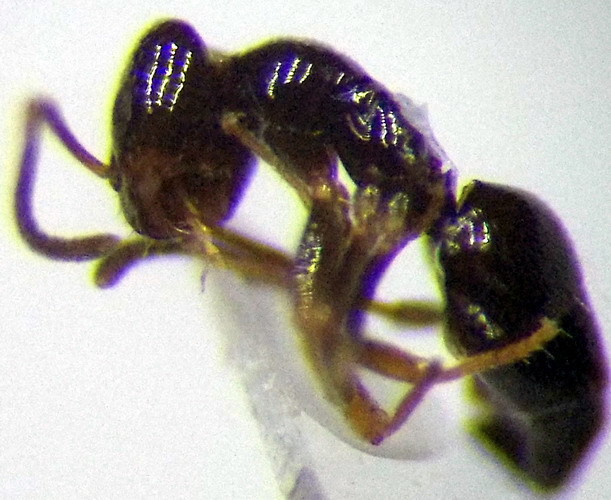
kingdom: Animalia
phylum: Arthropoda
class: Insecta
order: Hymenoptera
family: Formicidae
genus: Plagiolepis
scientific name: Plagiolepis pallescens
